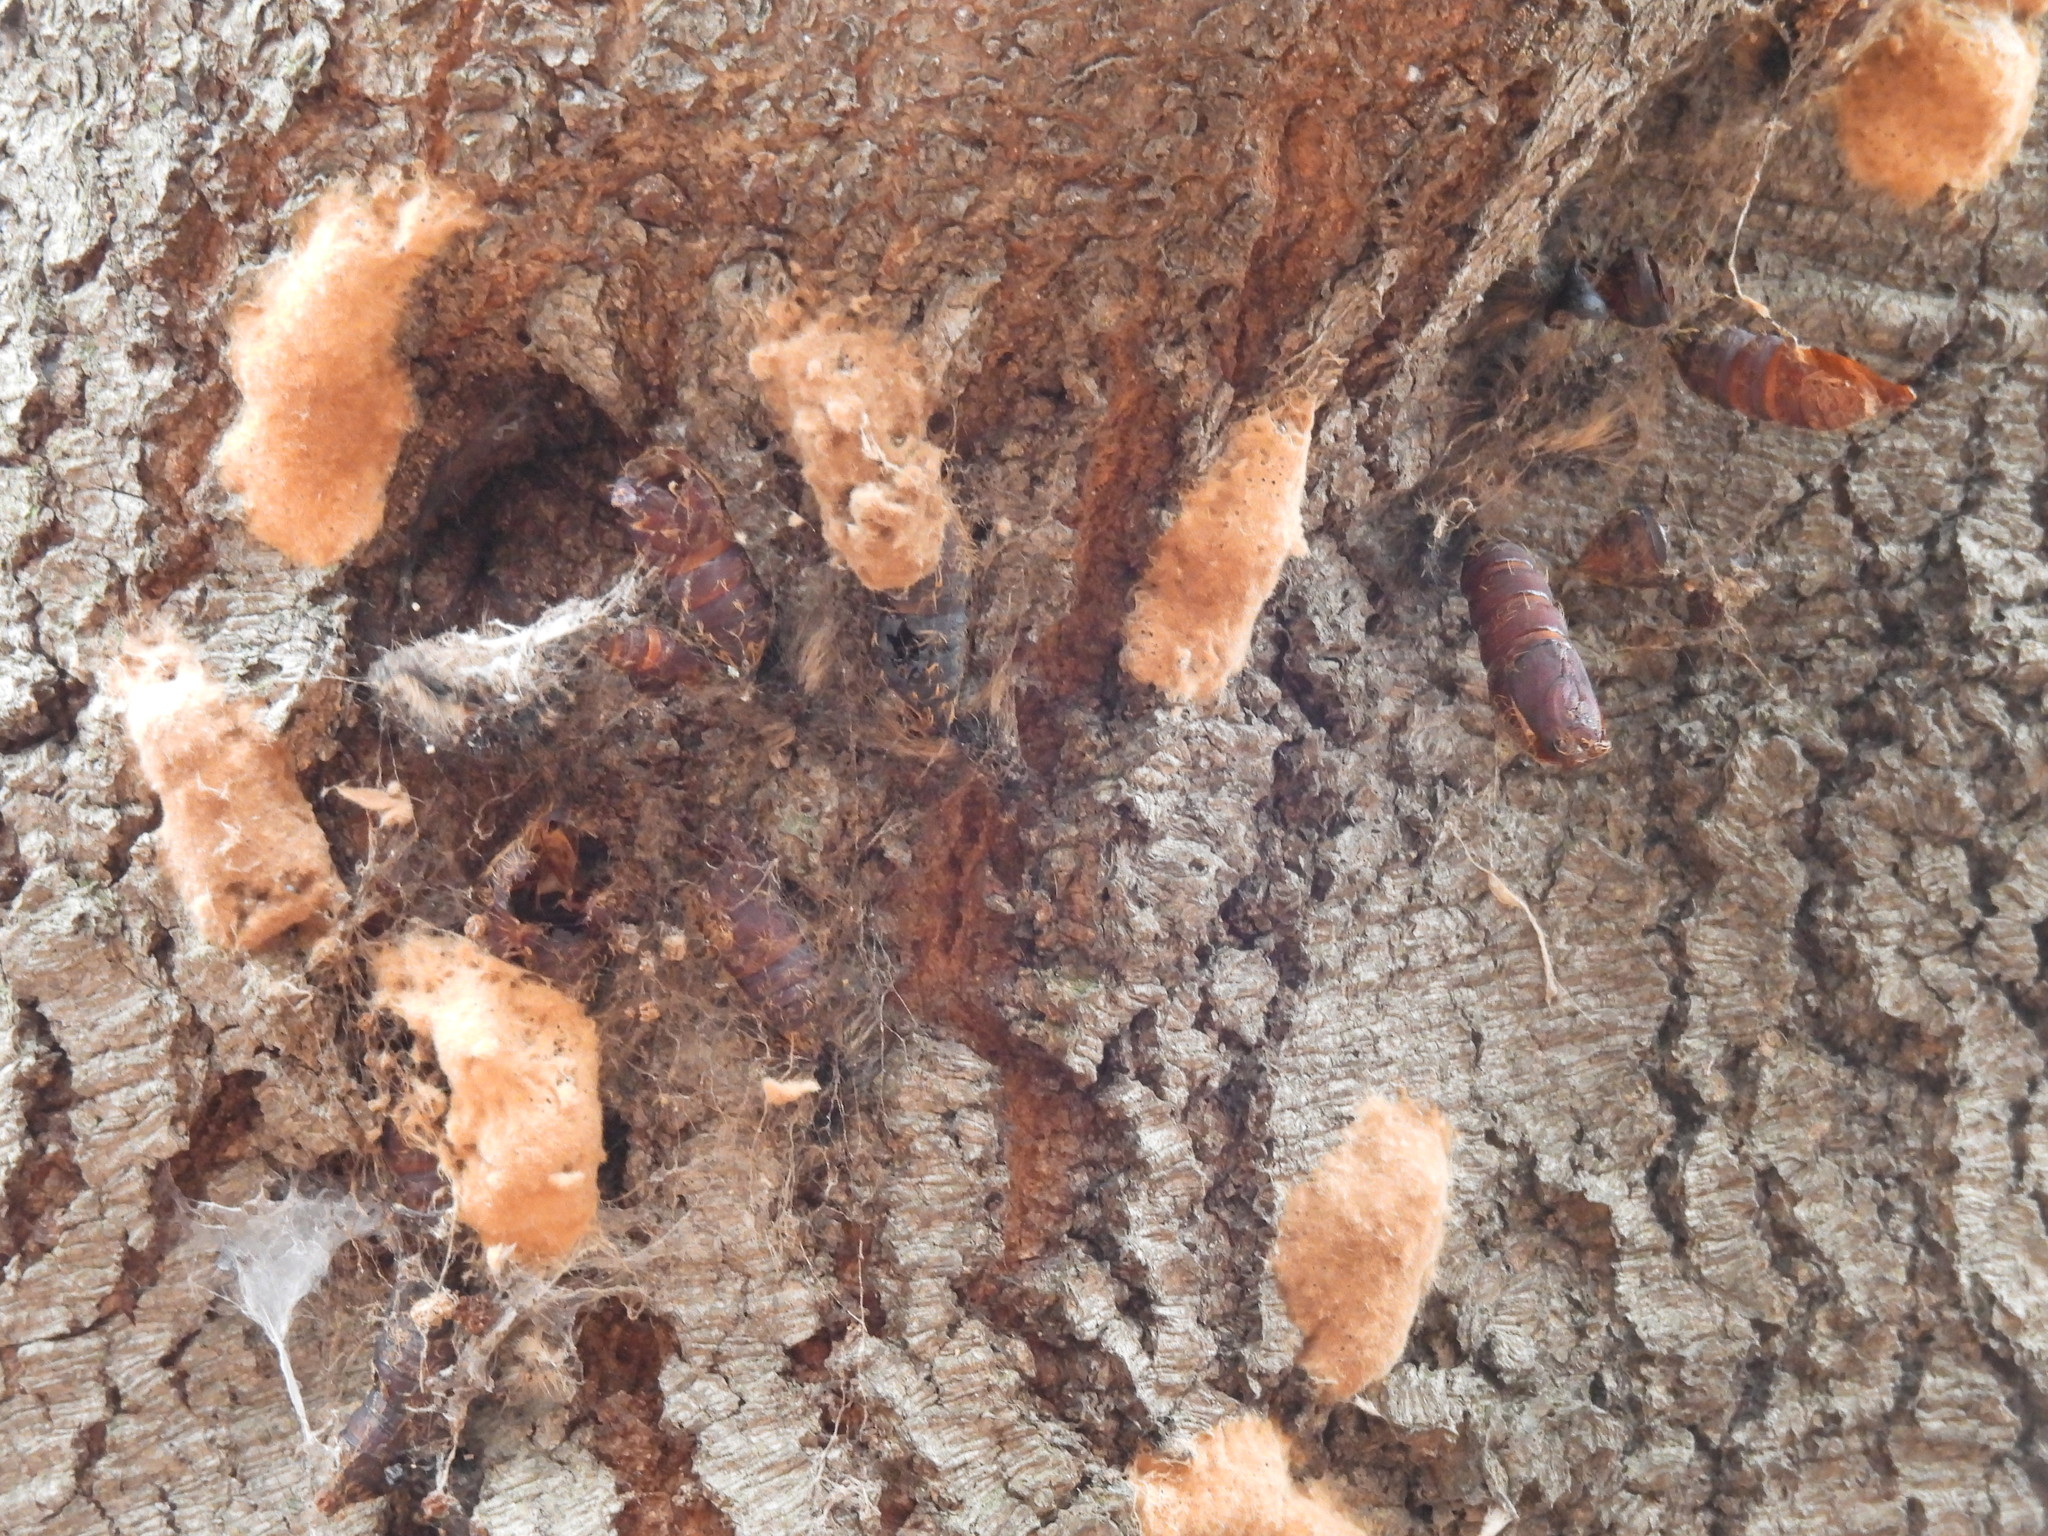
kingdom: Animalia
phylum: Arthropoda
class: Insecta
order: Lepidoptera
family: Erebidae
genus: Lymantria
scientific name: Lymantria dispar
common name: Gypsy moth
